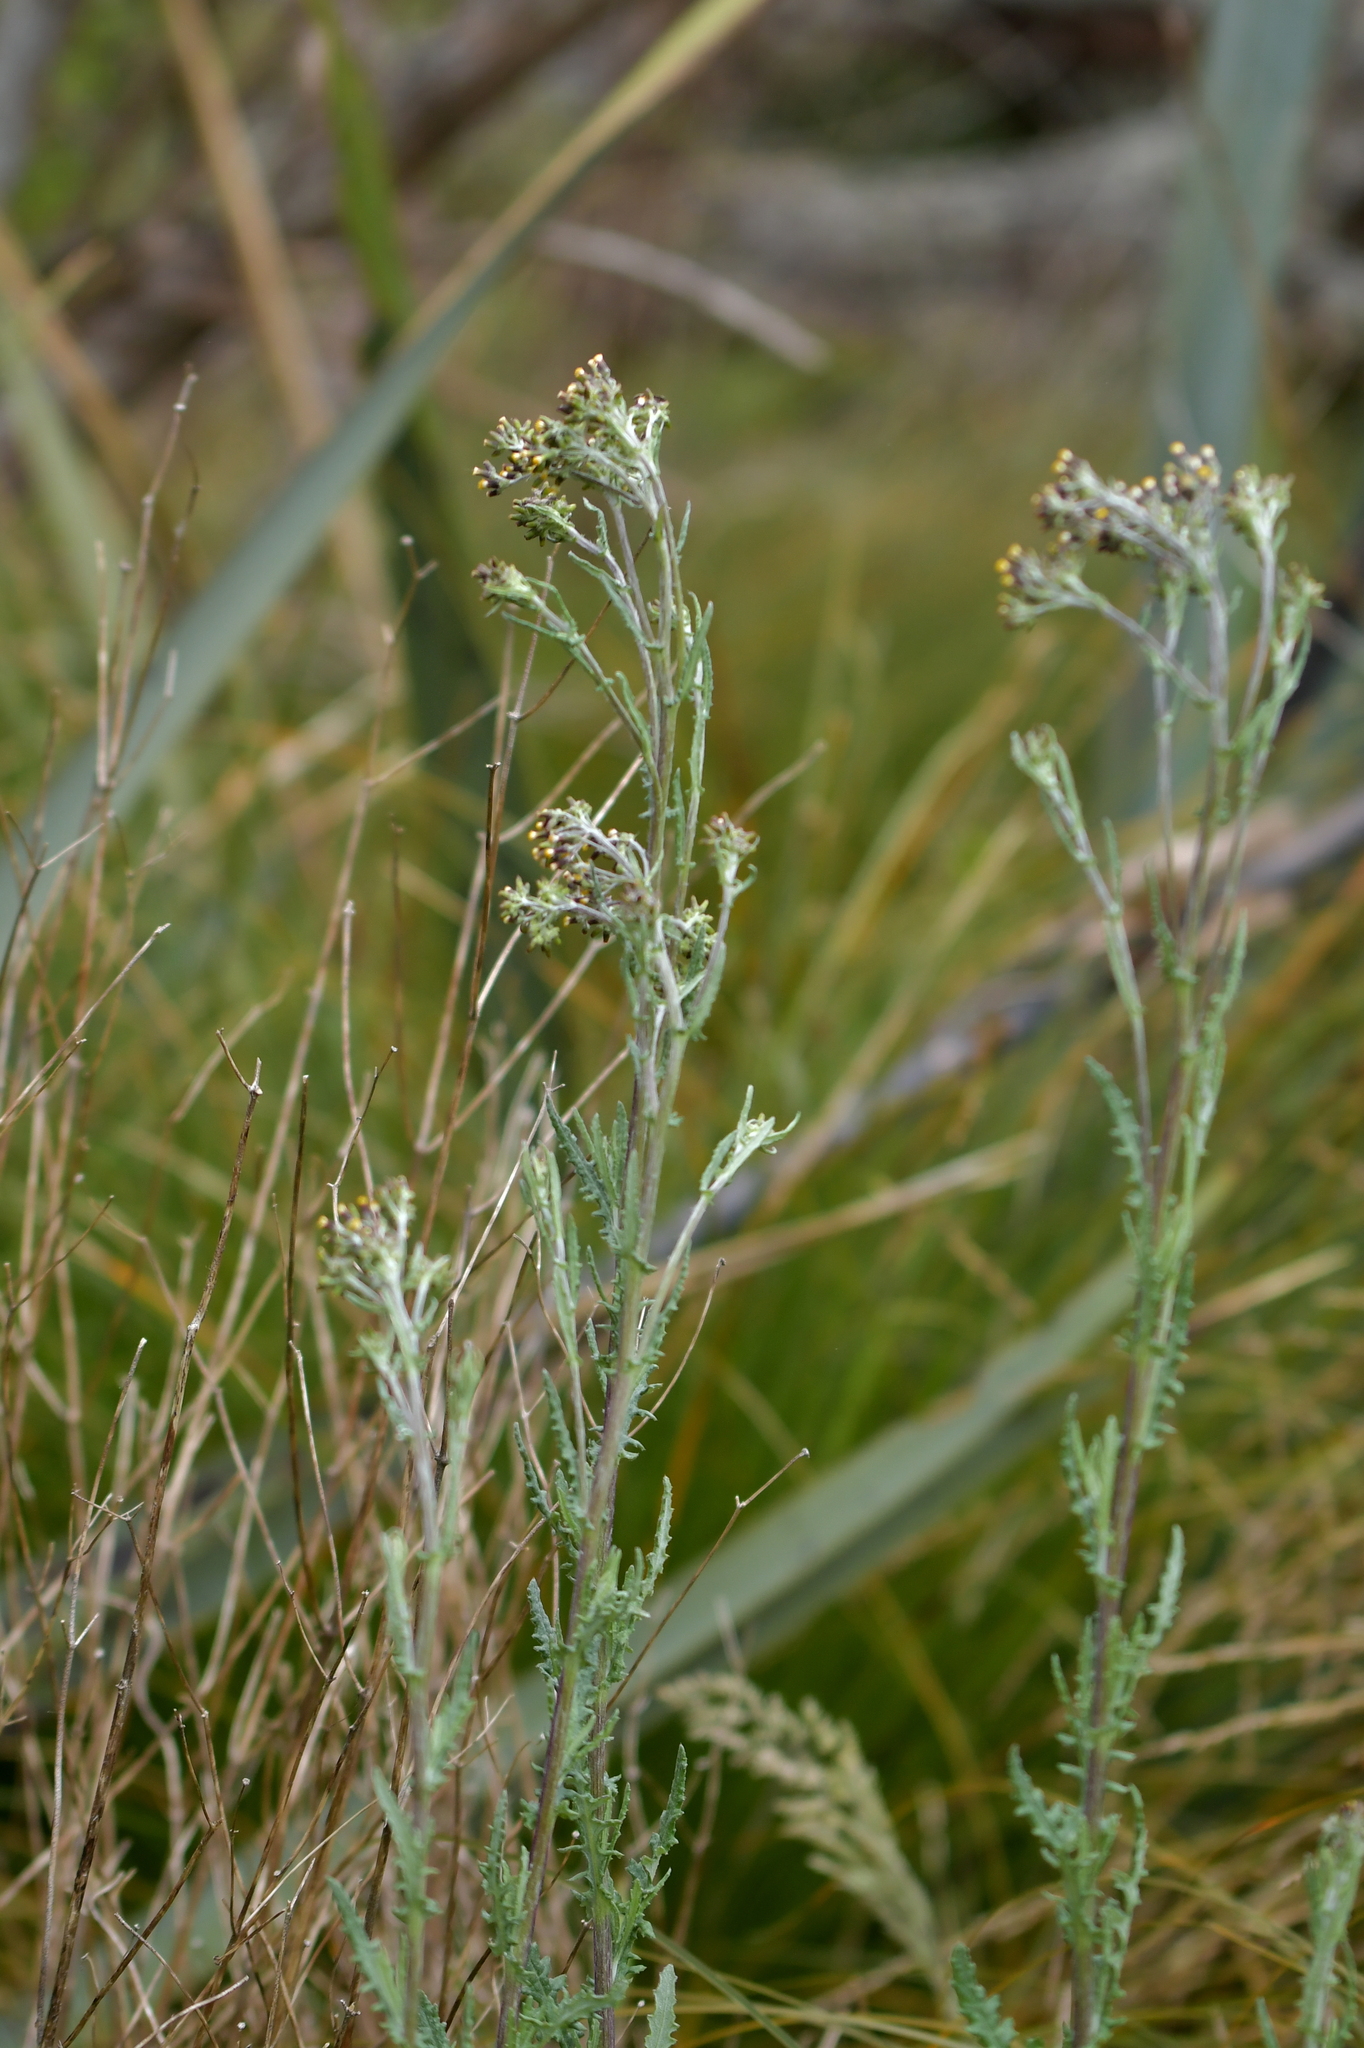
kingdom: Plantae
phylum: Tracheophyta
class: Magnoliopsida
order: Asterales
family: Asteraceae
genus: Senecio
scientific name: Senecio glomeratus
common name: Cutleaf burnweed
